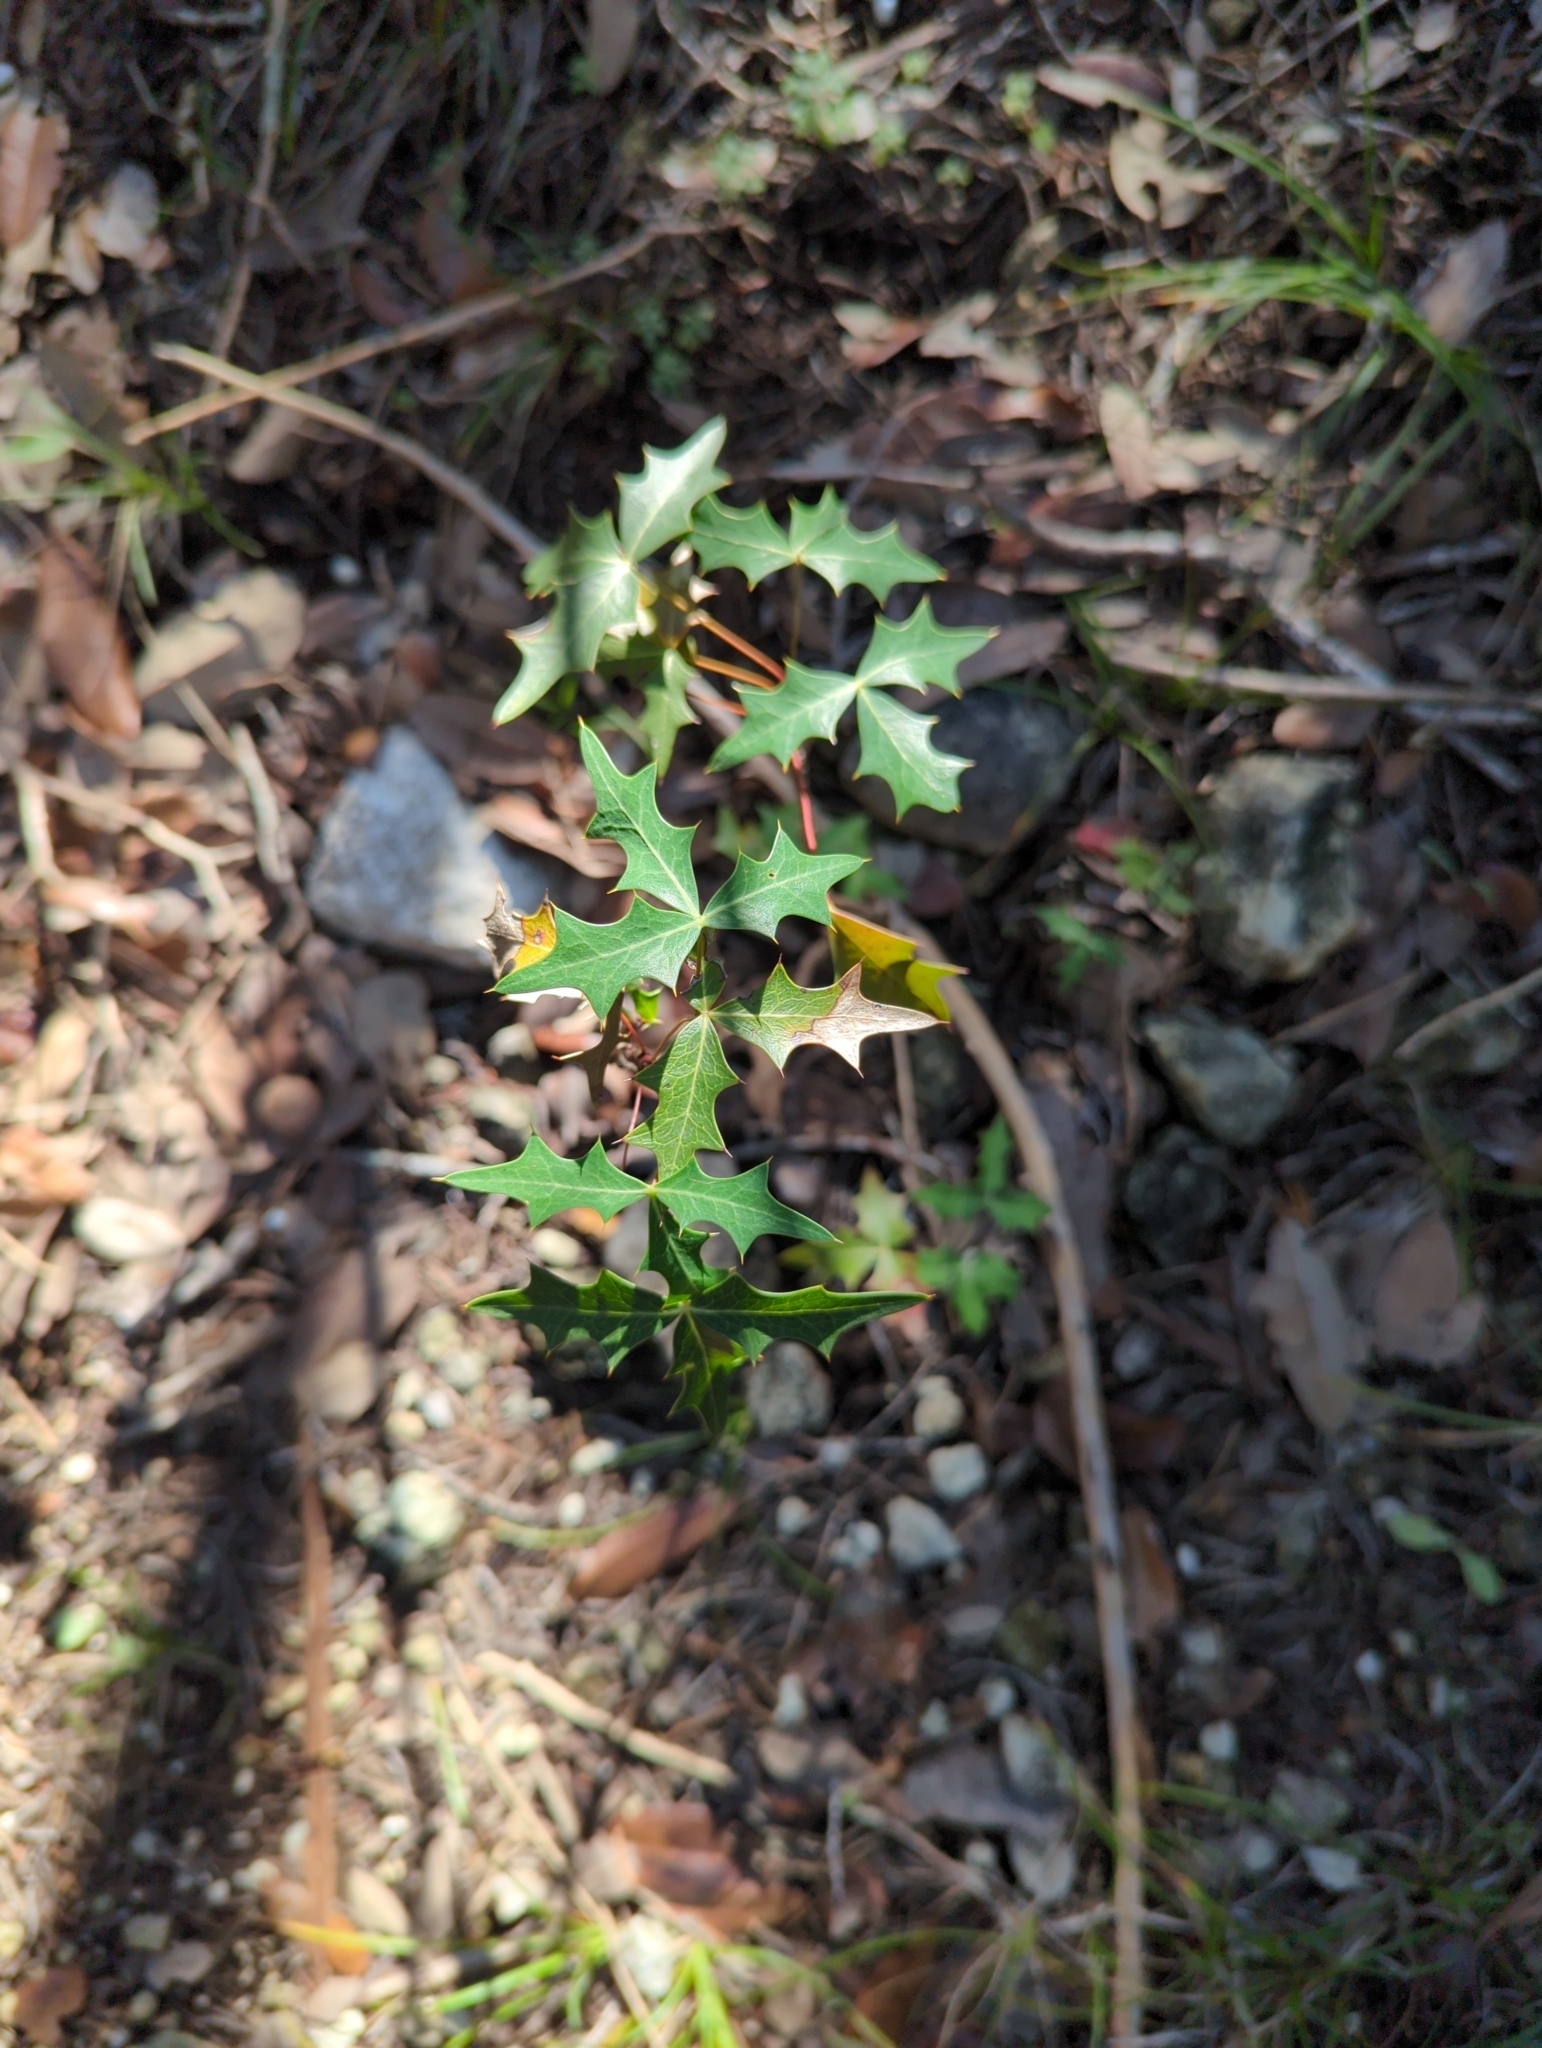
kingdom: Plantae
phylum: Tracheophyta
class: Magnoliopsida
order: Ranunculales
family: Berberidaceae
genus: Alloberberis
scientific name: Alloberberis trifoliolata
